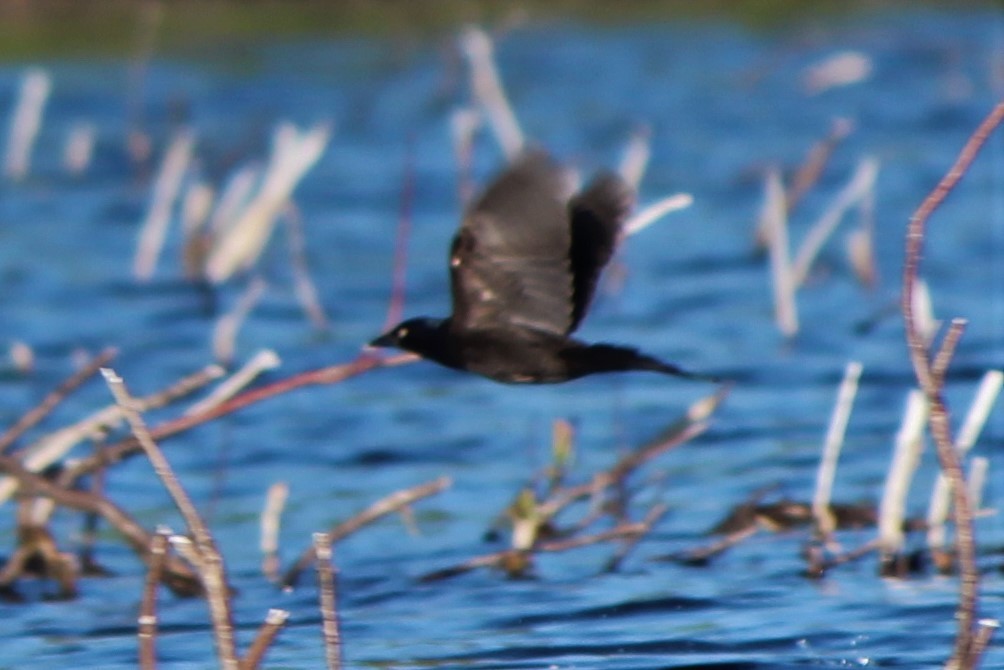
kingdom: Animalia
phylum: Chordata
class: Aves
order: Passeriformes
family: Icteridae
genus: Quiscalus
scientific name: Quiscalus quiscula
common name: Common grackle
